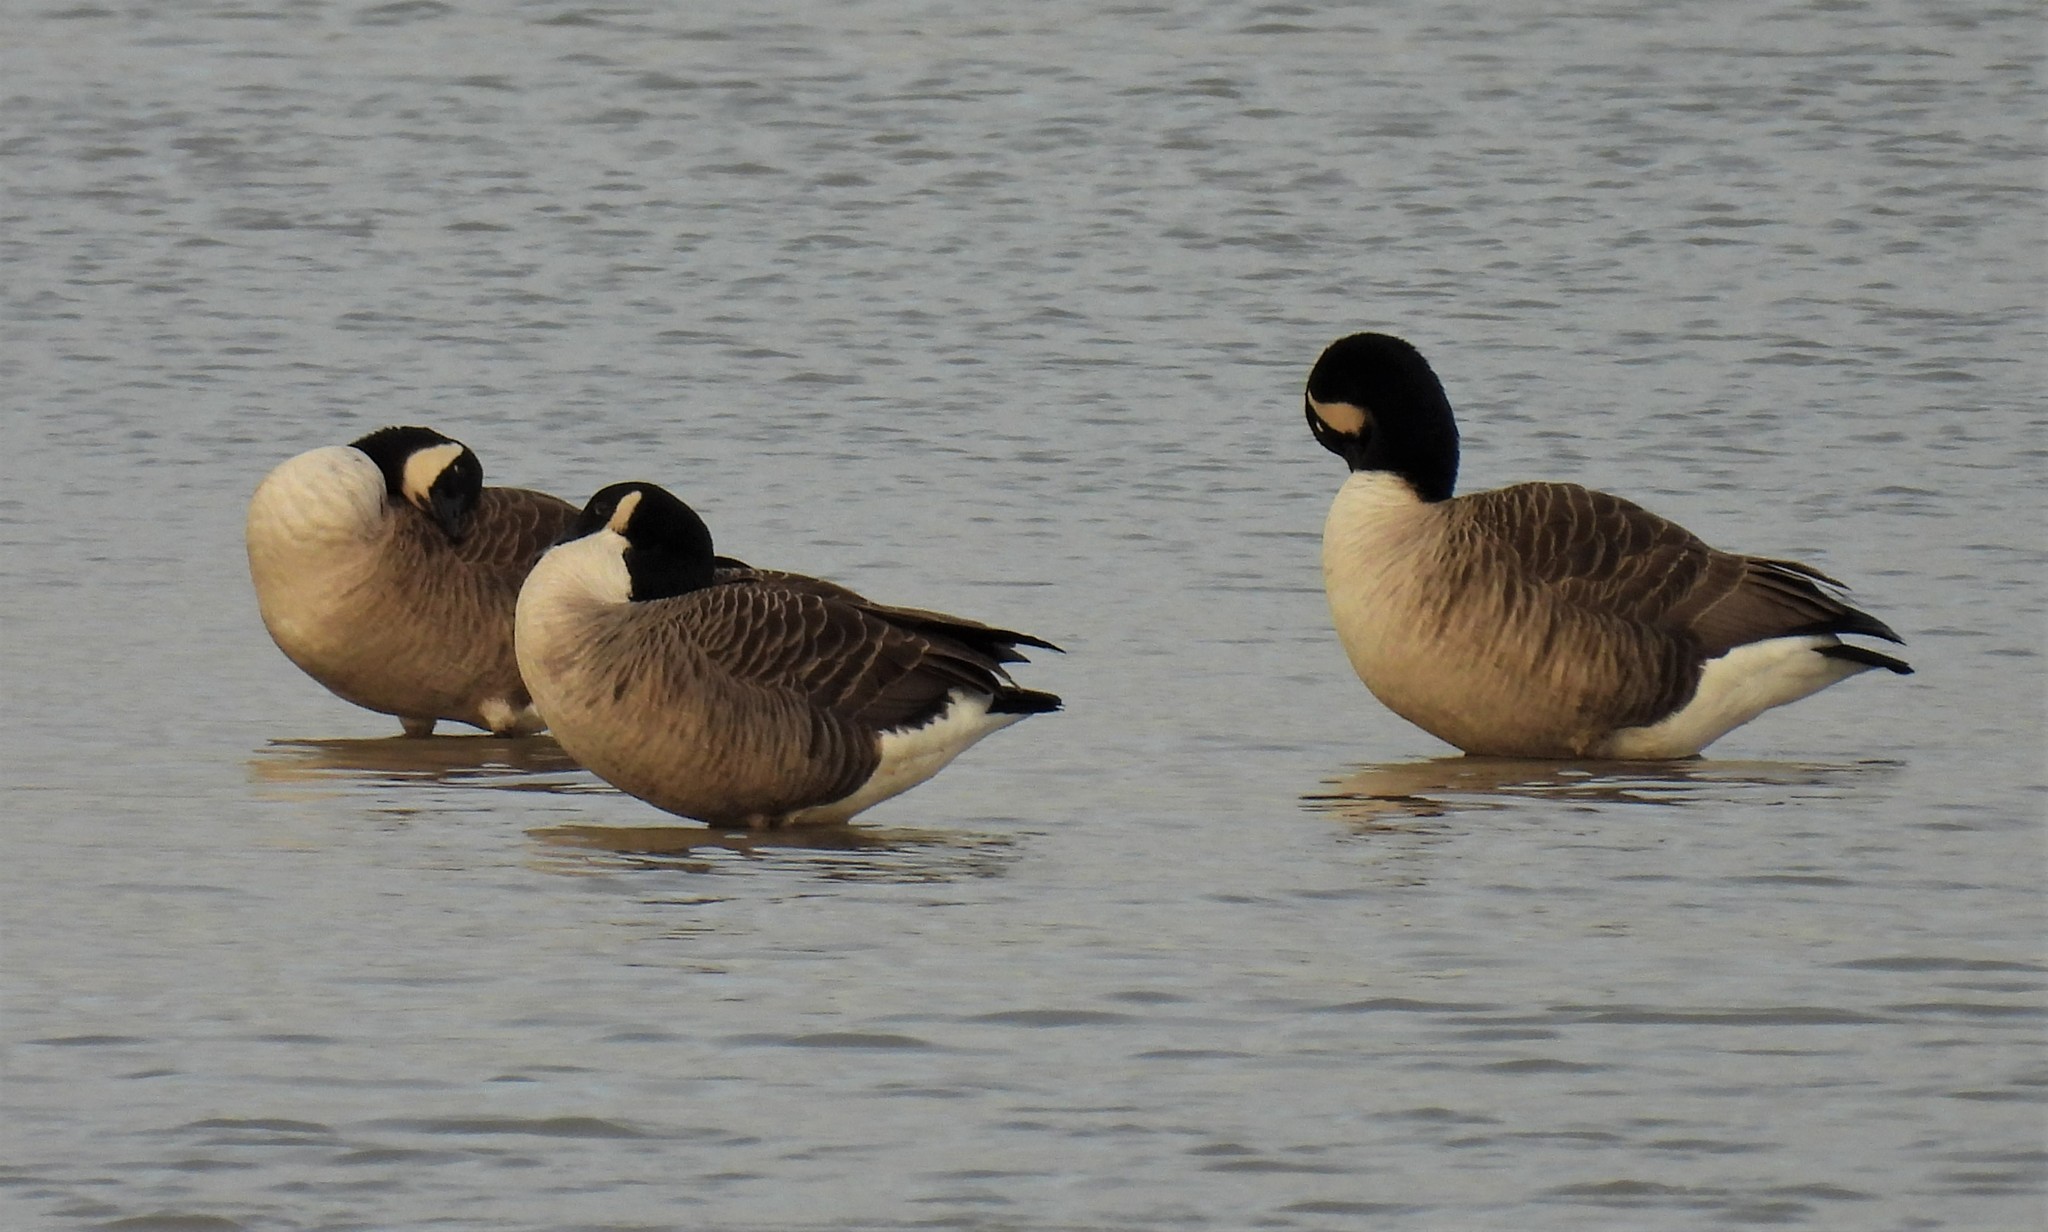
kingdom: Animalia
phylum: Chordata
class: Aves
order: Anseriformes
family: Anatidae
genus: Branta
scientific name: Branta canadensis
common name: Canada goose
